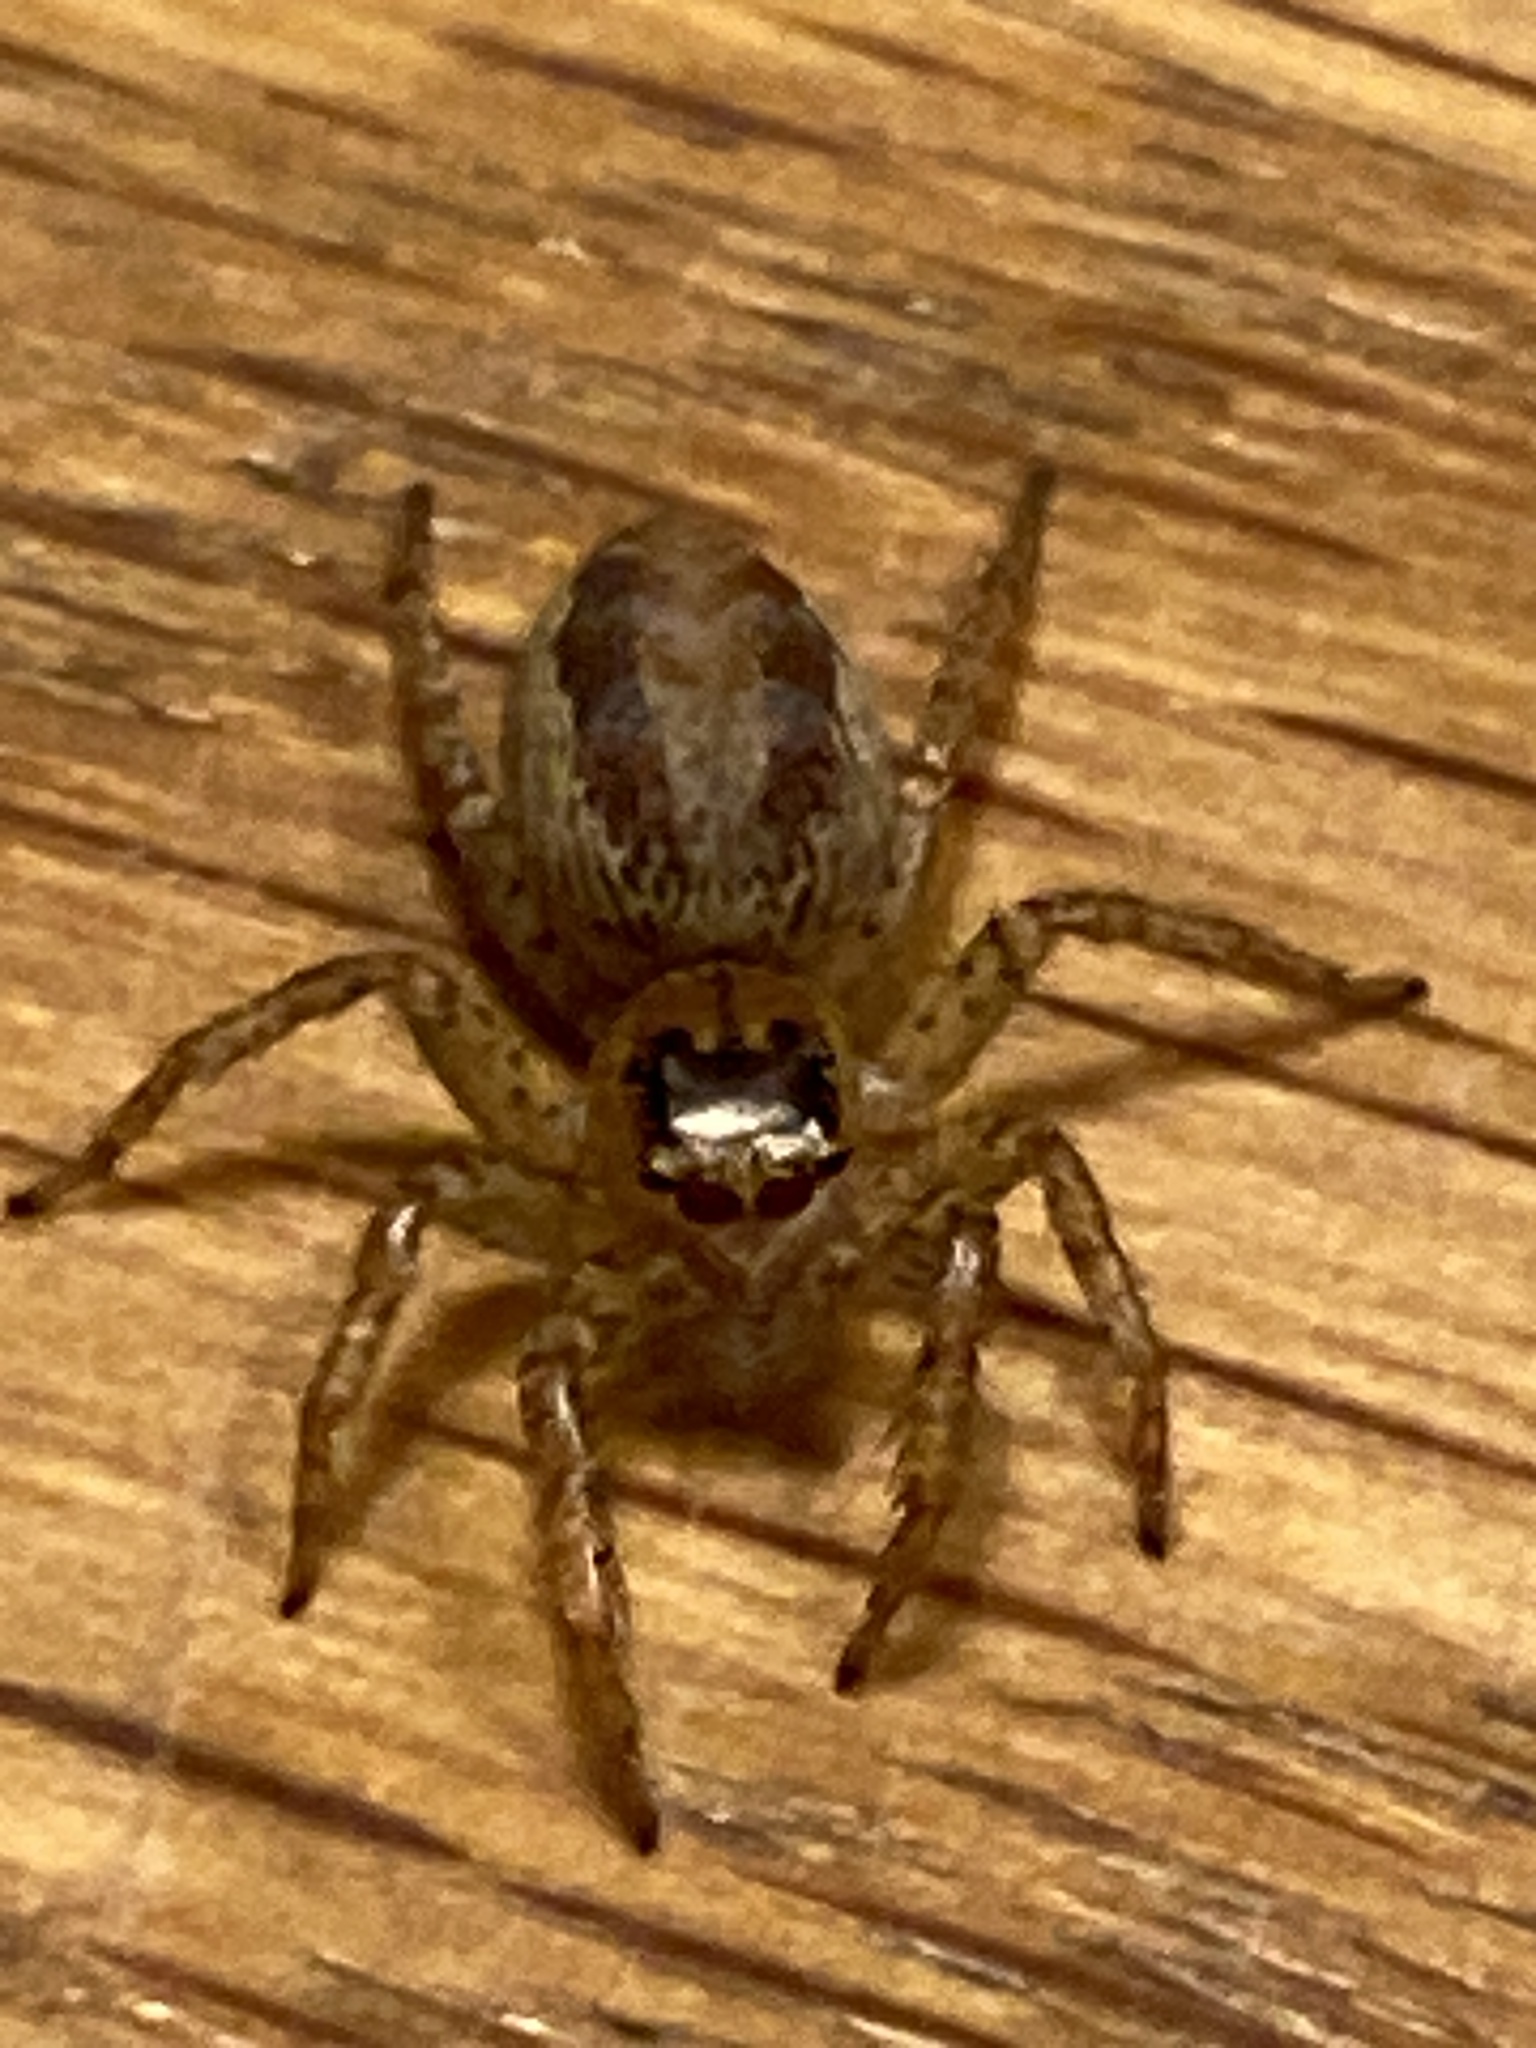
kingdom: Animalia
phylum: Arthropoda
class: Arachnida
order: Araneae
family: Salticidae
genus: Maevia
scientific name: Maevia inclemens
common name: Dimorphic jumper
